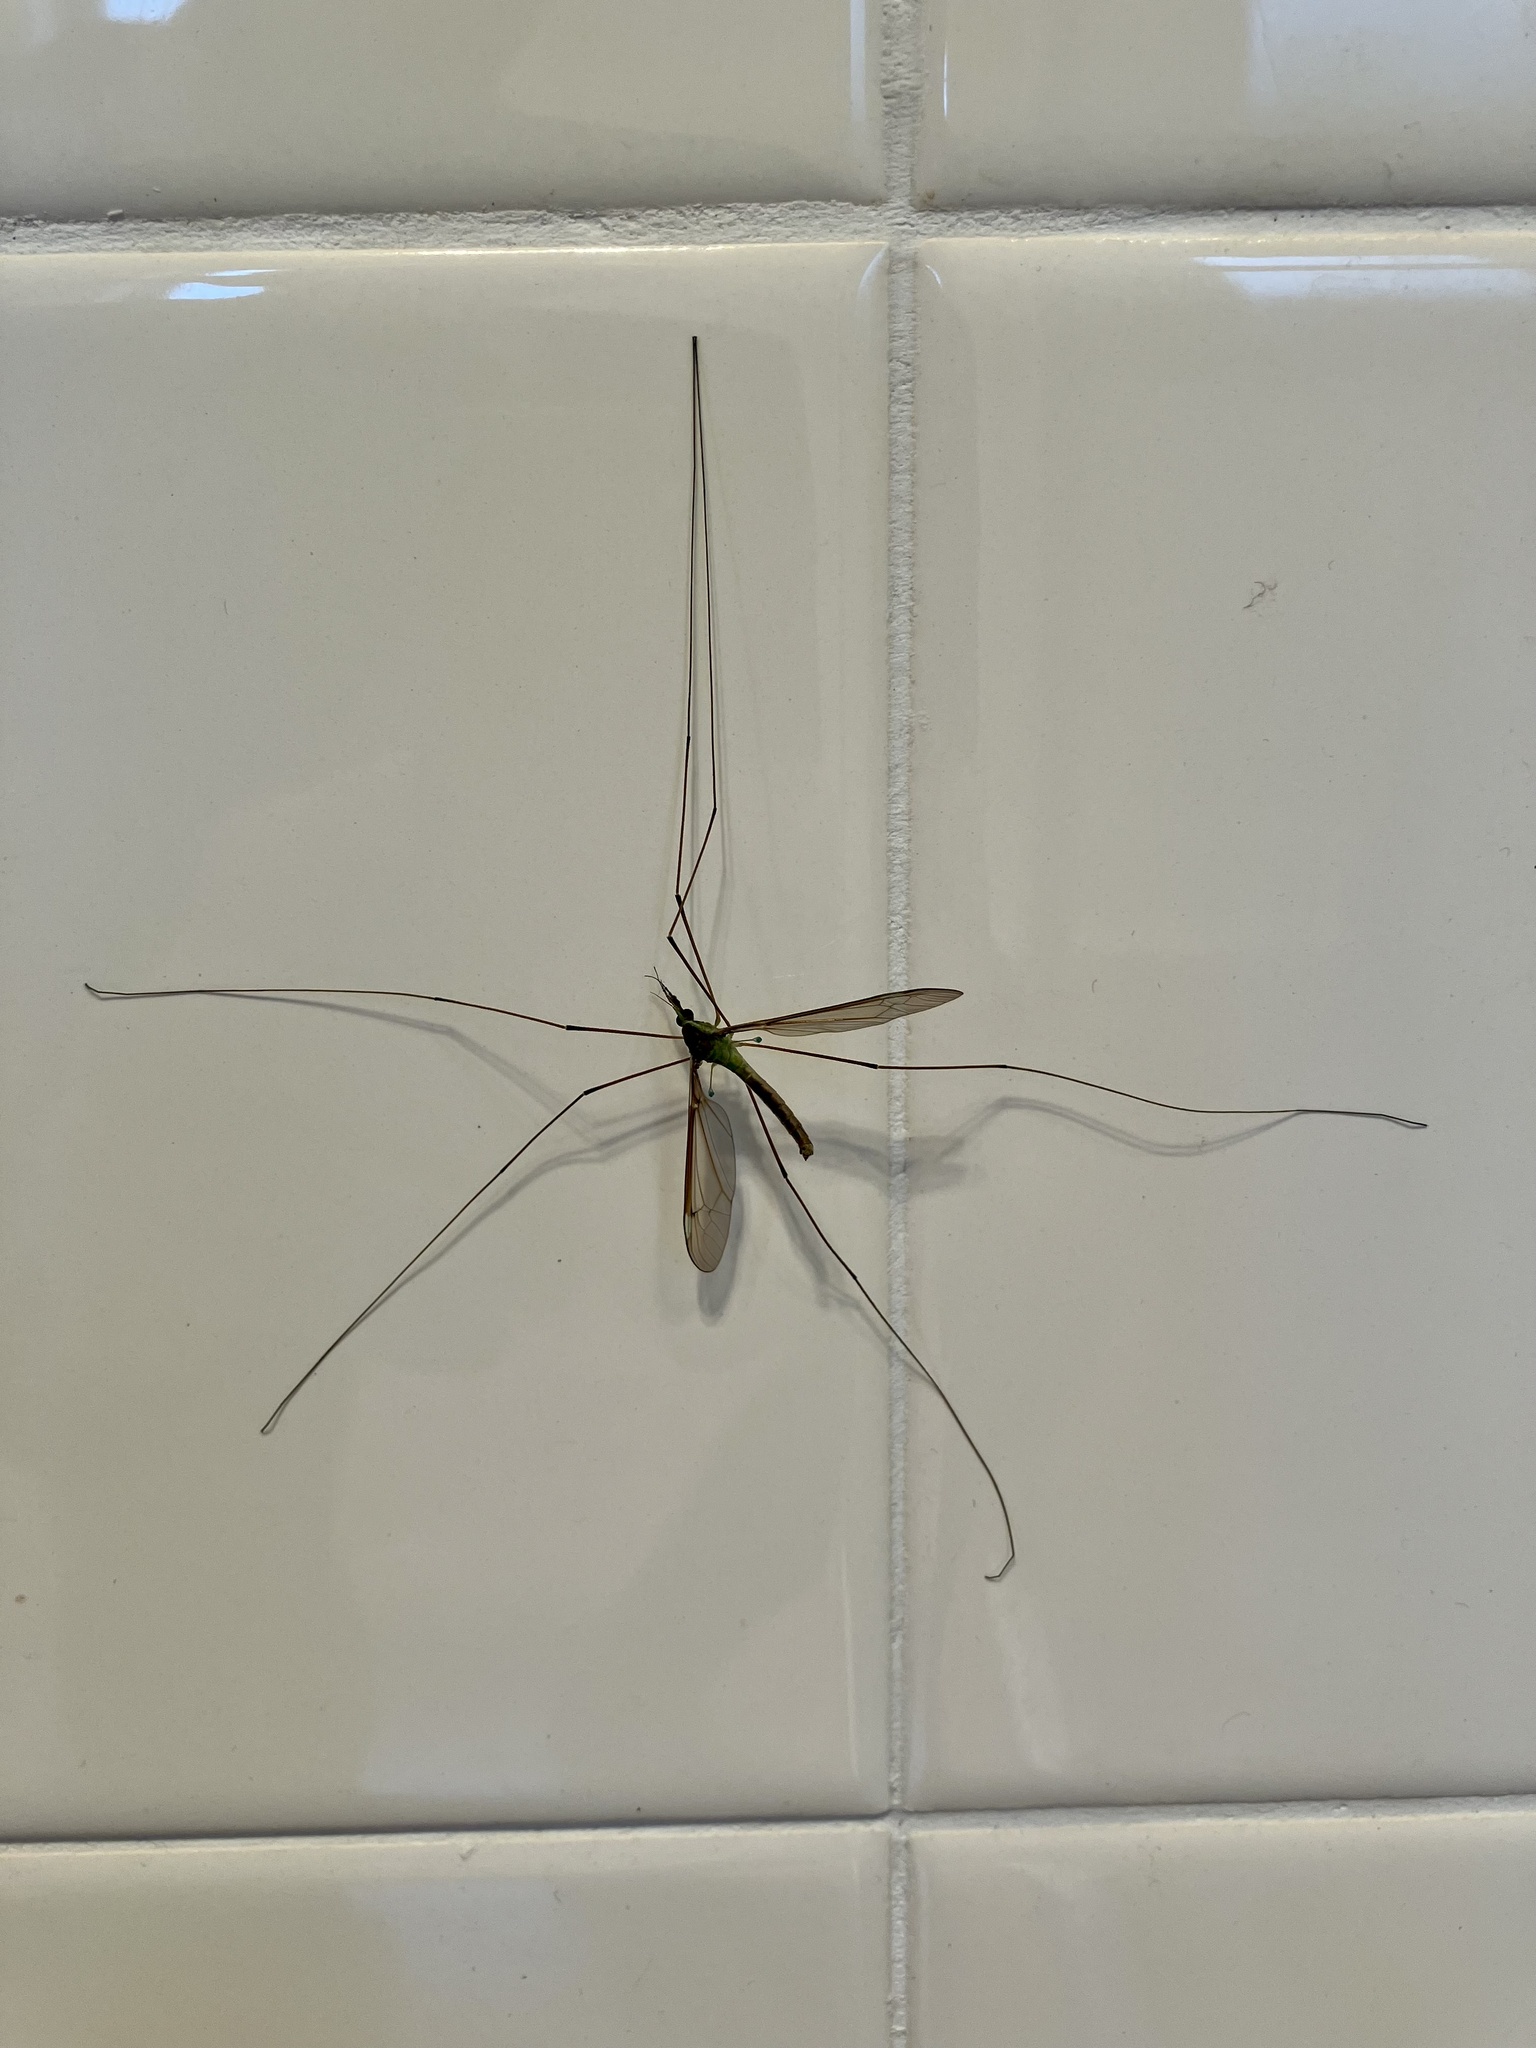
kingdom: Animalia
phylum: Arthropoda
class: Insecta
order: Diptera
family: Tipulidae
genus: Leptotarsus
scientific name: Leptotarsus albistigma
